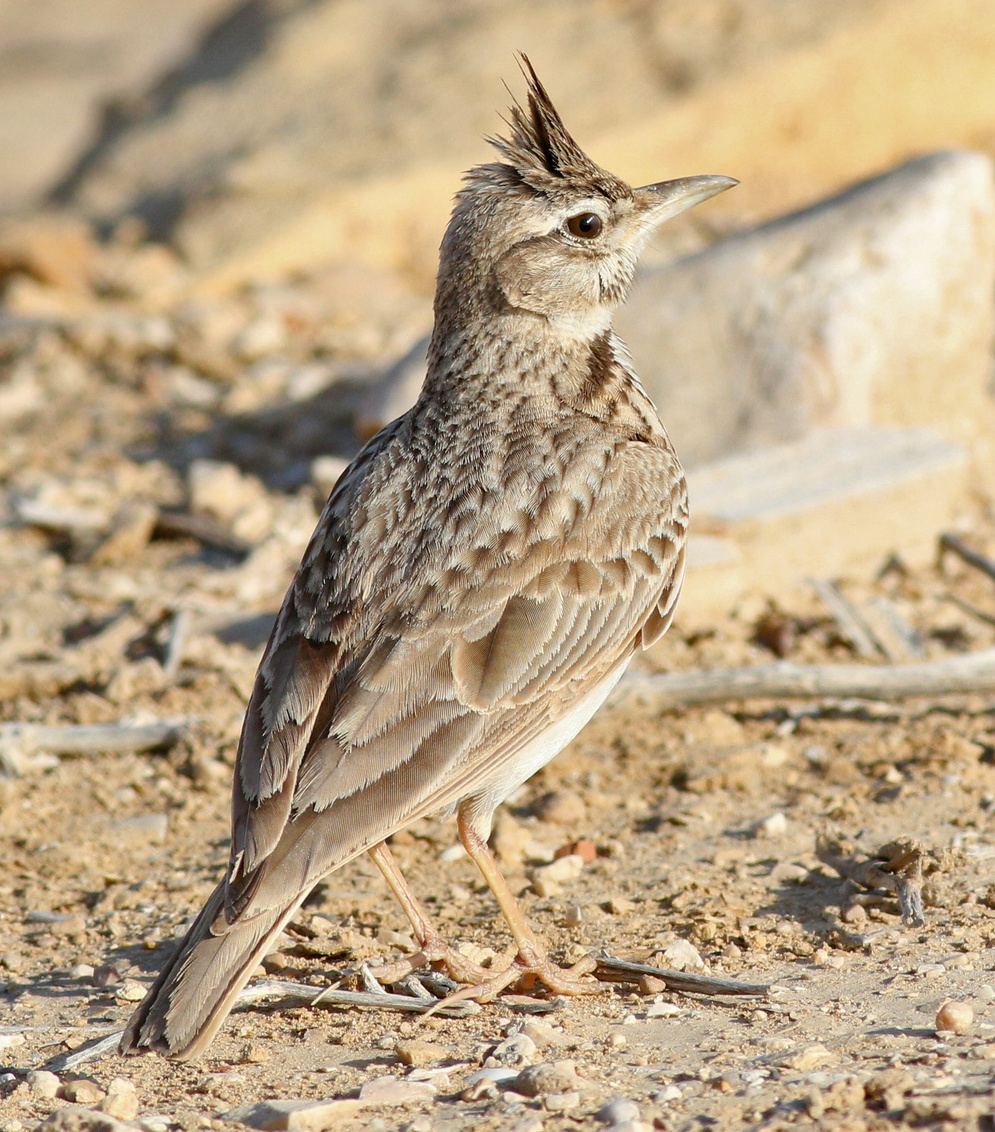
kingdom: Animalia
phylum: Chordata
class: Aves
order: Passeriformes
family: Alaudidae
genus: Galerida
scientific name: Galerida cristata
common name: Crested lark
